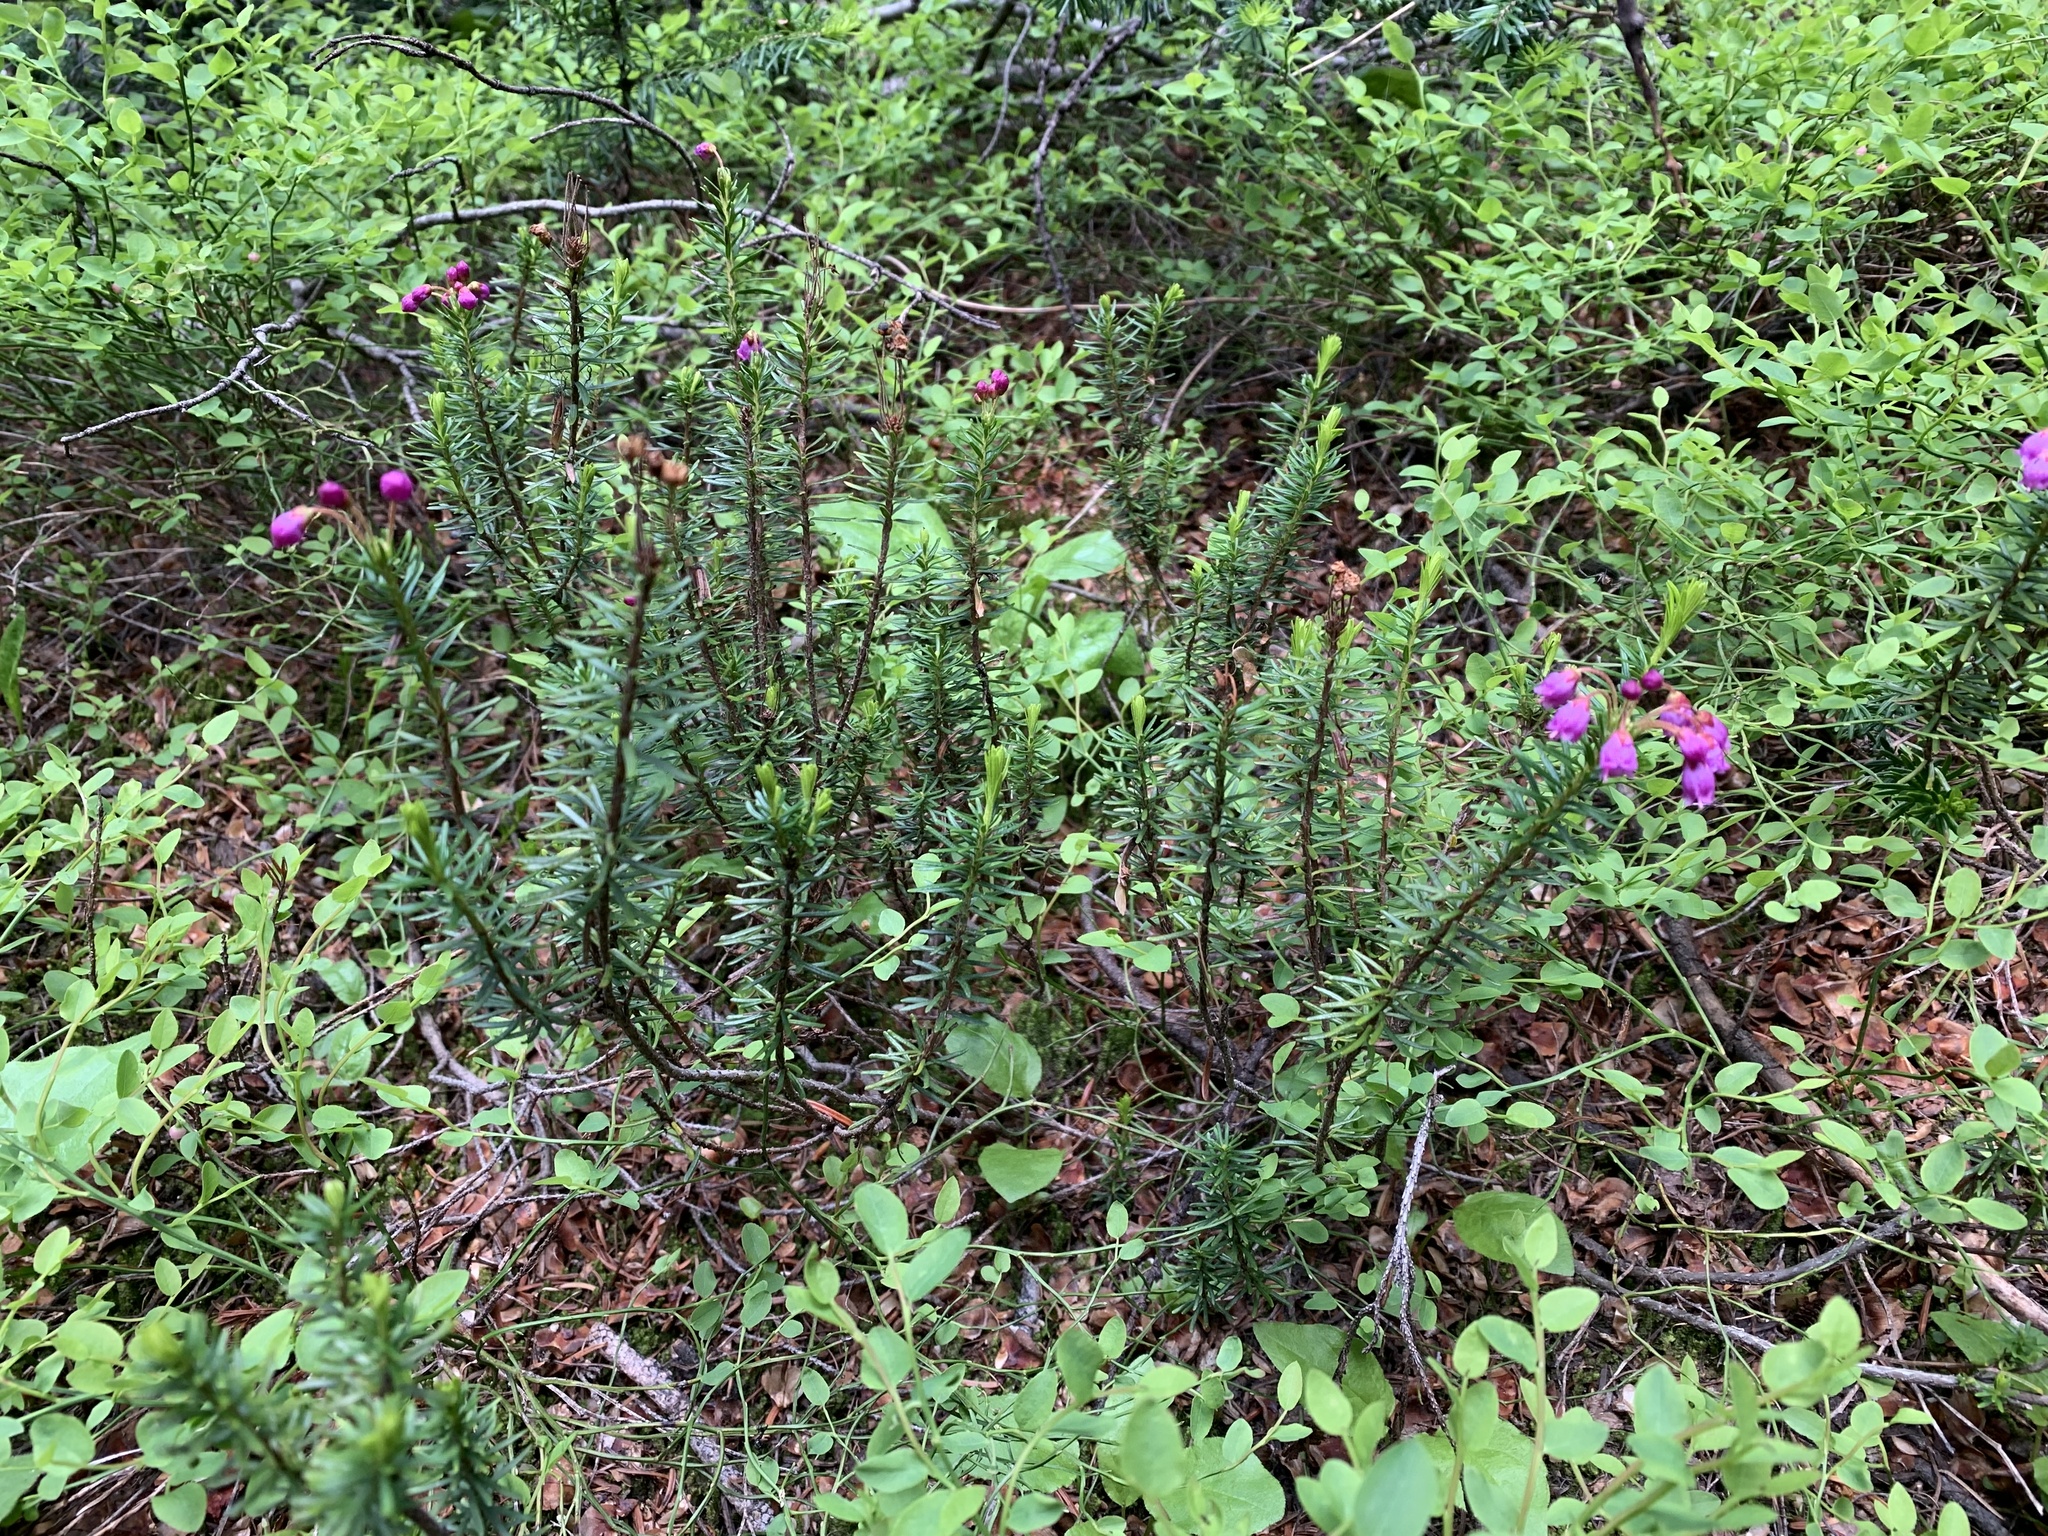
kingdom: Plantae
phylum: Tracheophyta
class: Magnoliopsida
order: Ericales
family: Ericaceae
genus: Phyllodoce
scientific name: Phyllodoce empetriformis
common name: Pink mountain heather
